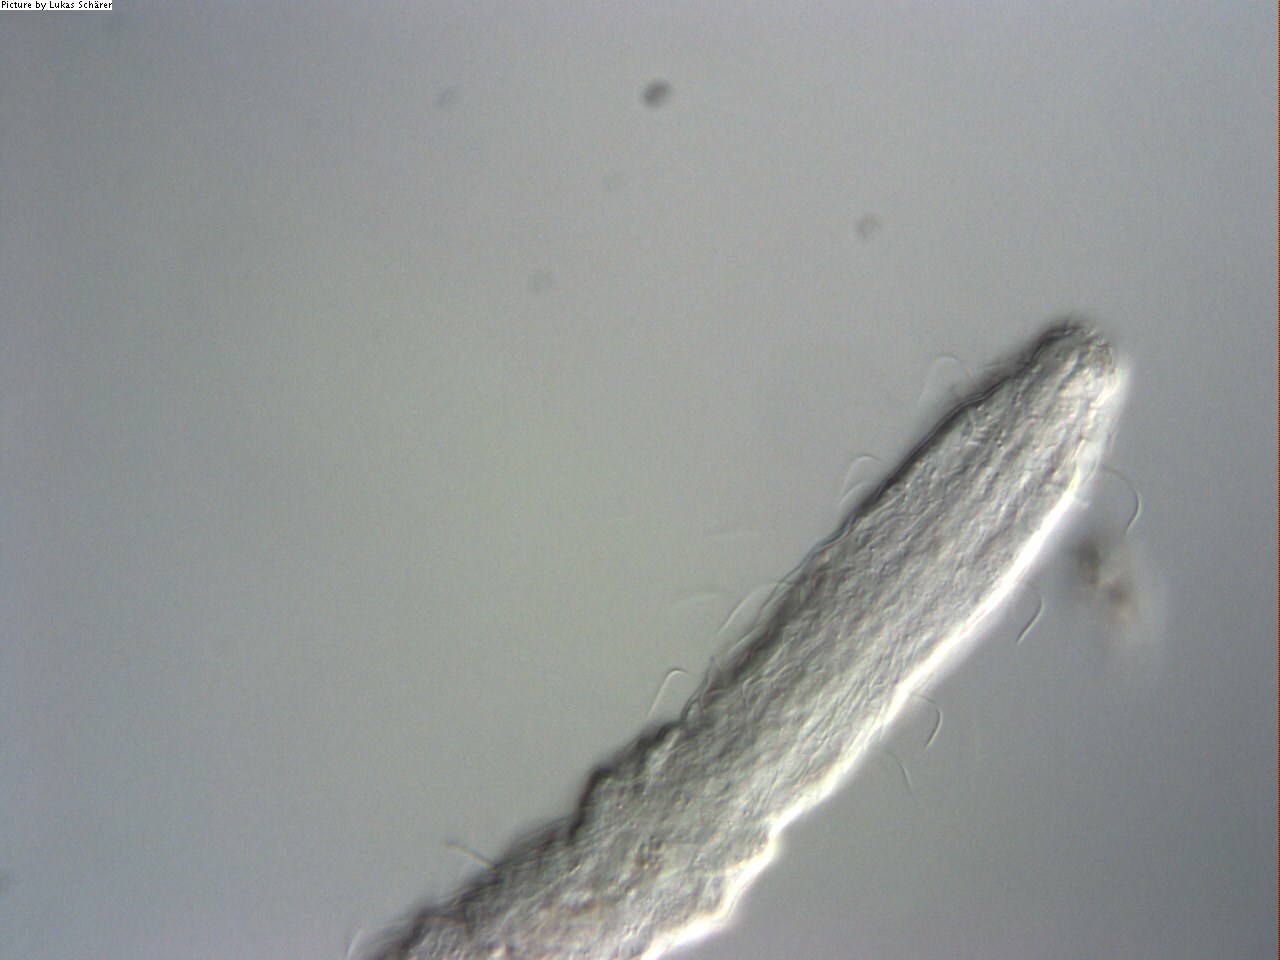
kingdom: Animalia
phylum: Gastrotricha
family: Macrodasyidae
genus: Urodasys
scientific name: Urodasys viviparus
